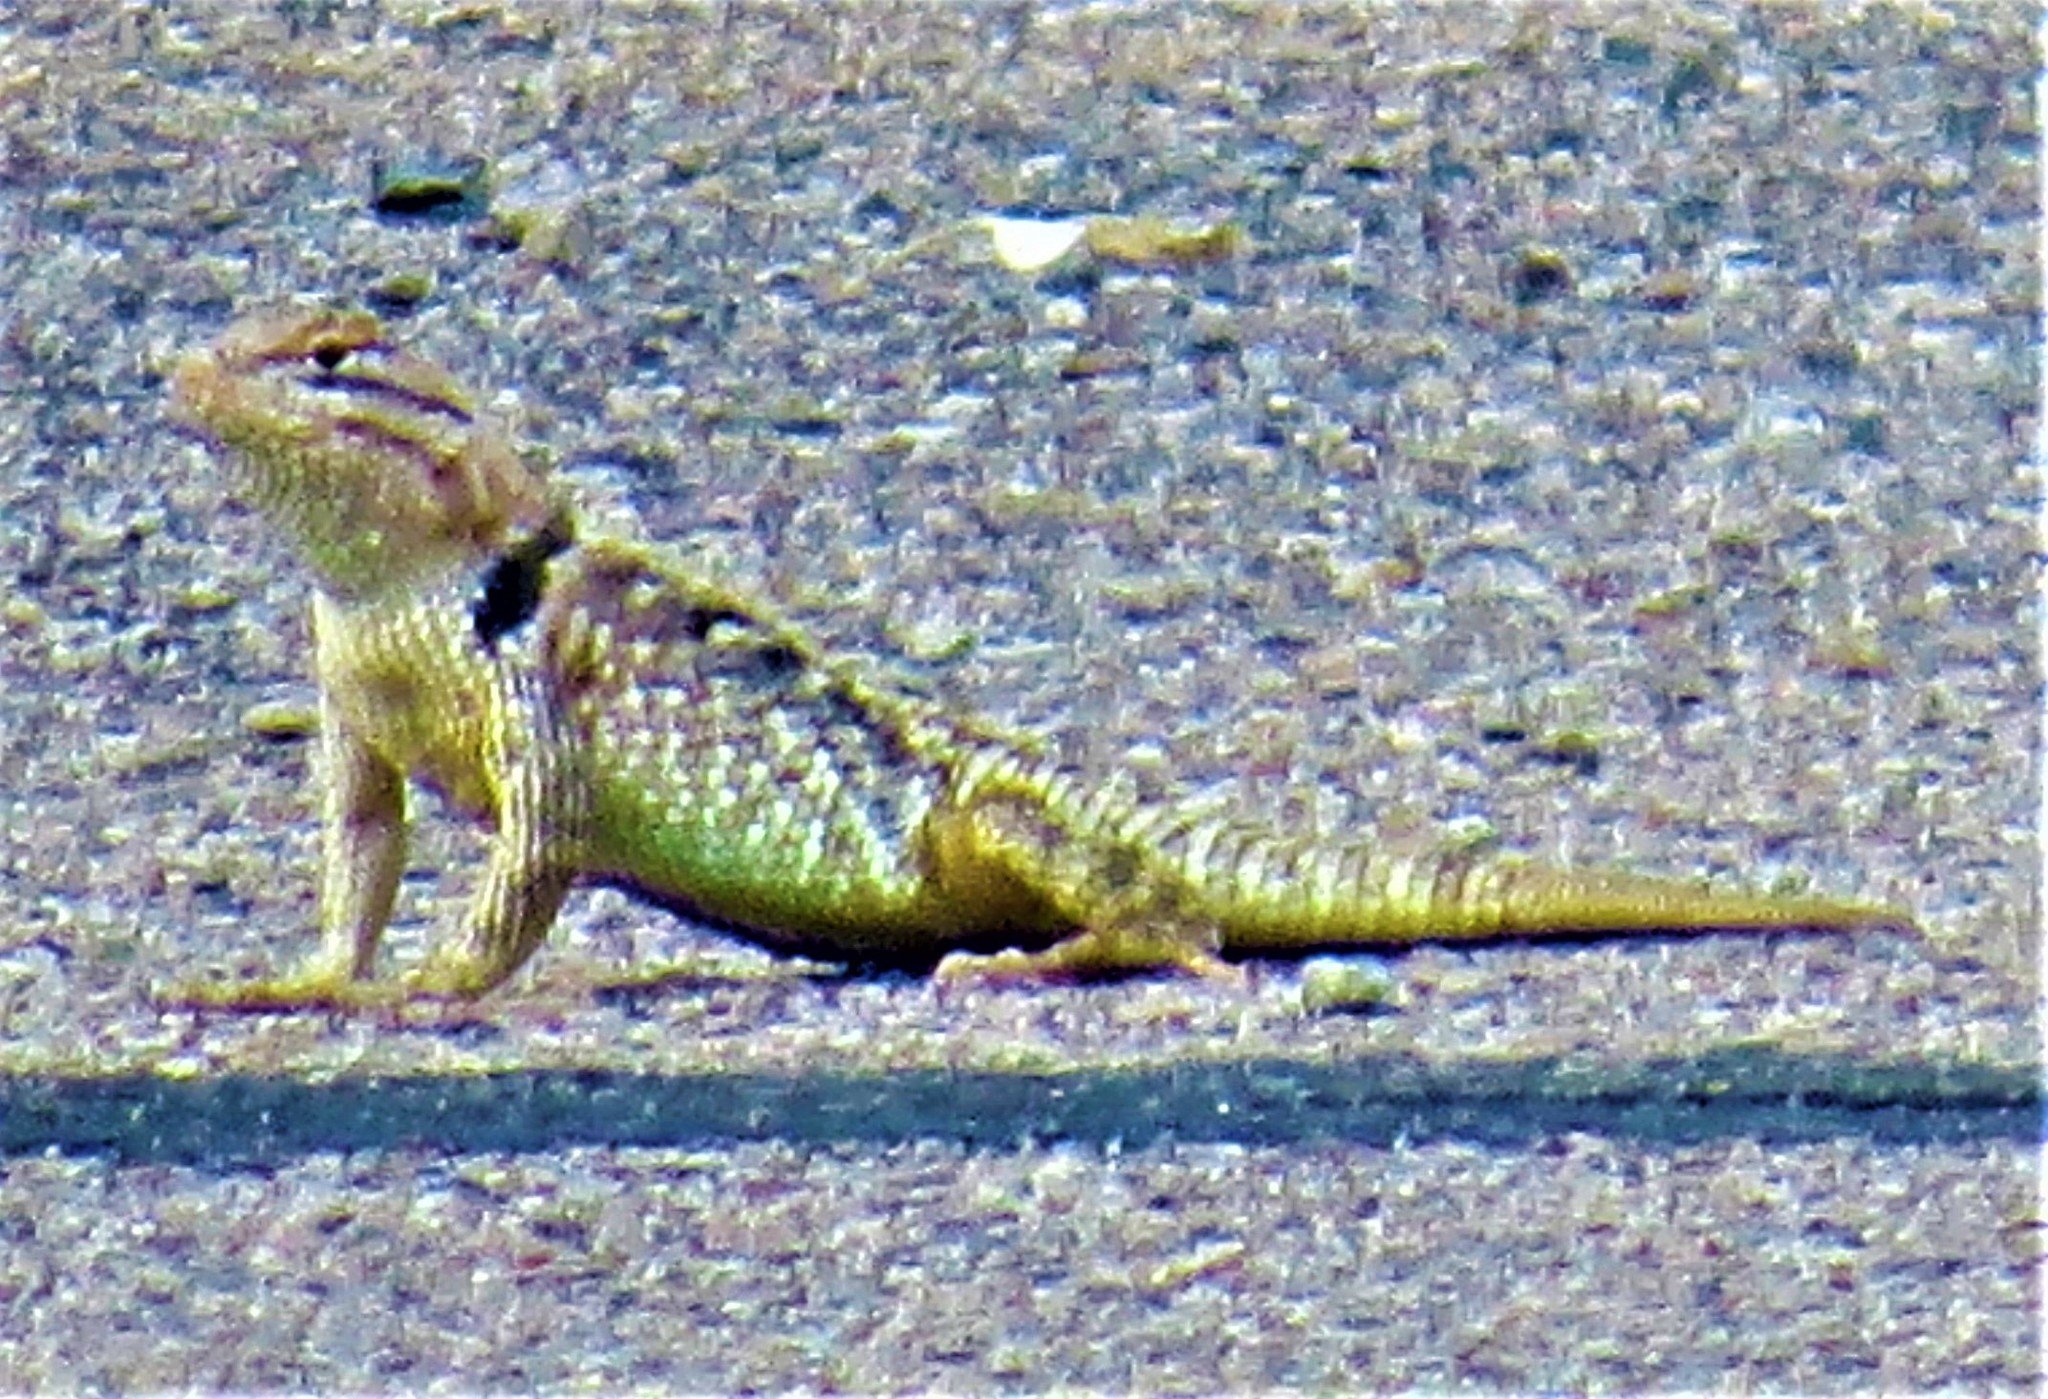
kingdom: Animalia
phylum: Chordata
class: Squamata
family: Phrynosomatidae
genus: Sceloporus
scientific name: Sceloporus magister
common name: Desert spiny lizard
